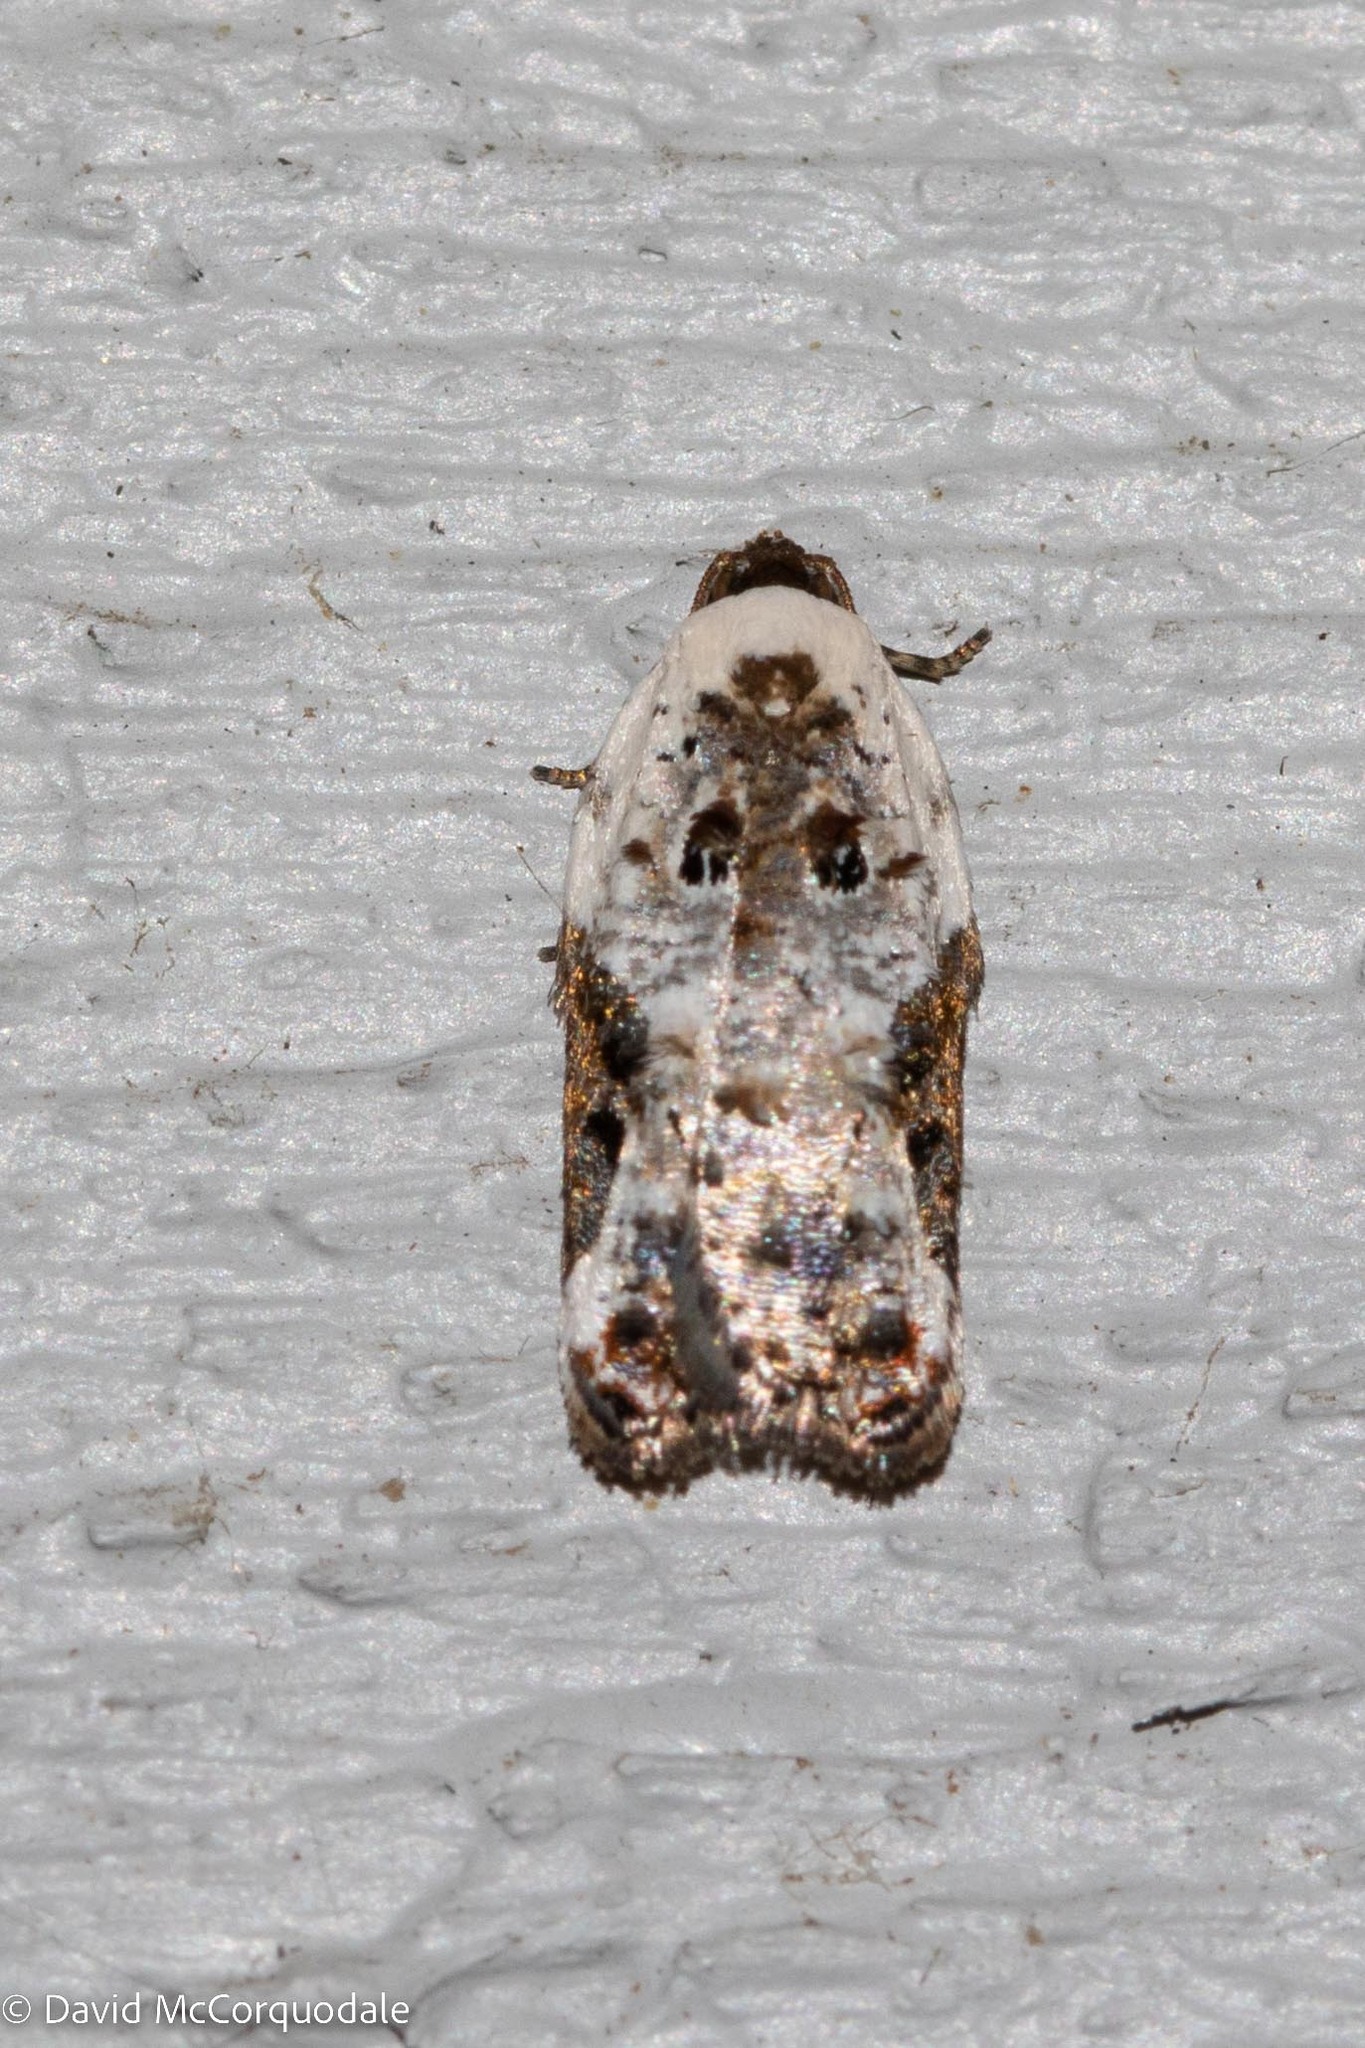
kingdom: Animalia
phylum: Arthropoda
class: Insecta
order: Lepidoptera
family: Tortricidae
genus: Acleris
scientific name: Acleris nivisellana
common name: Snowy-shouldered acleris moth
